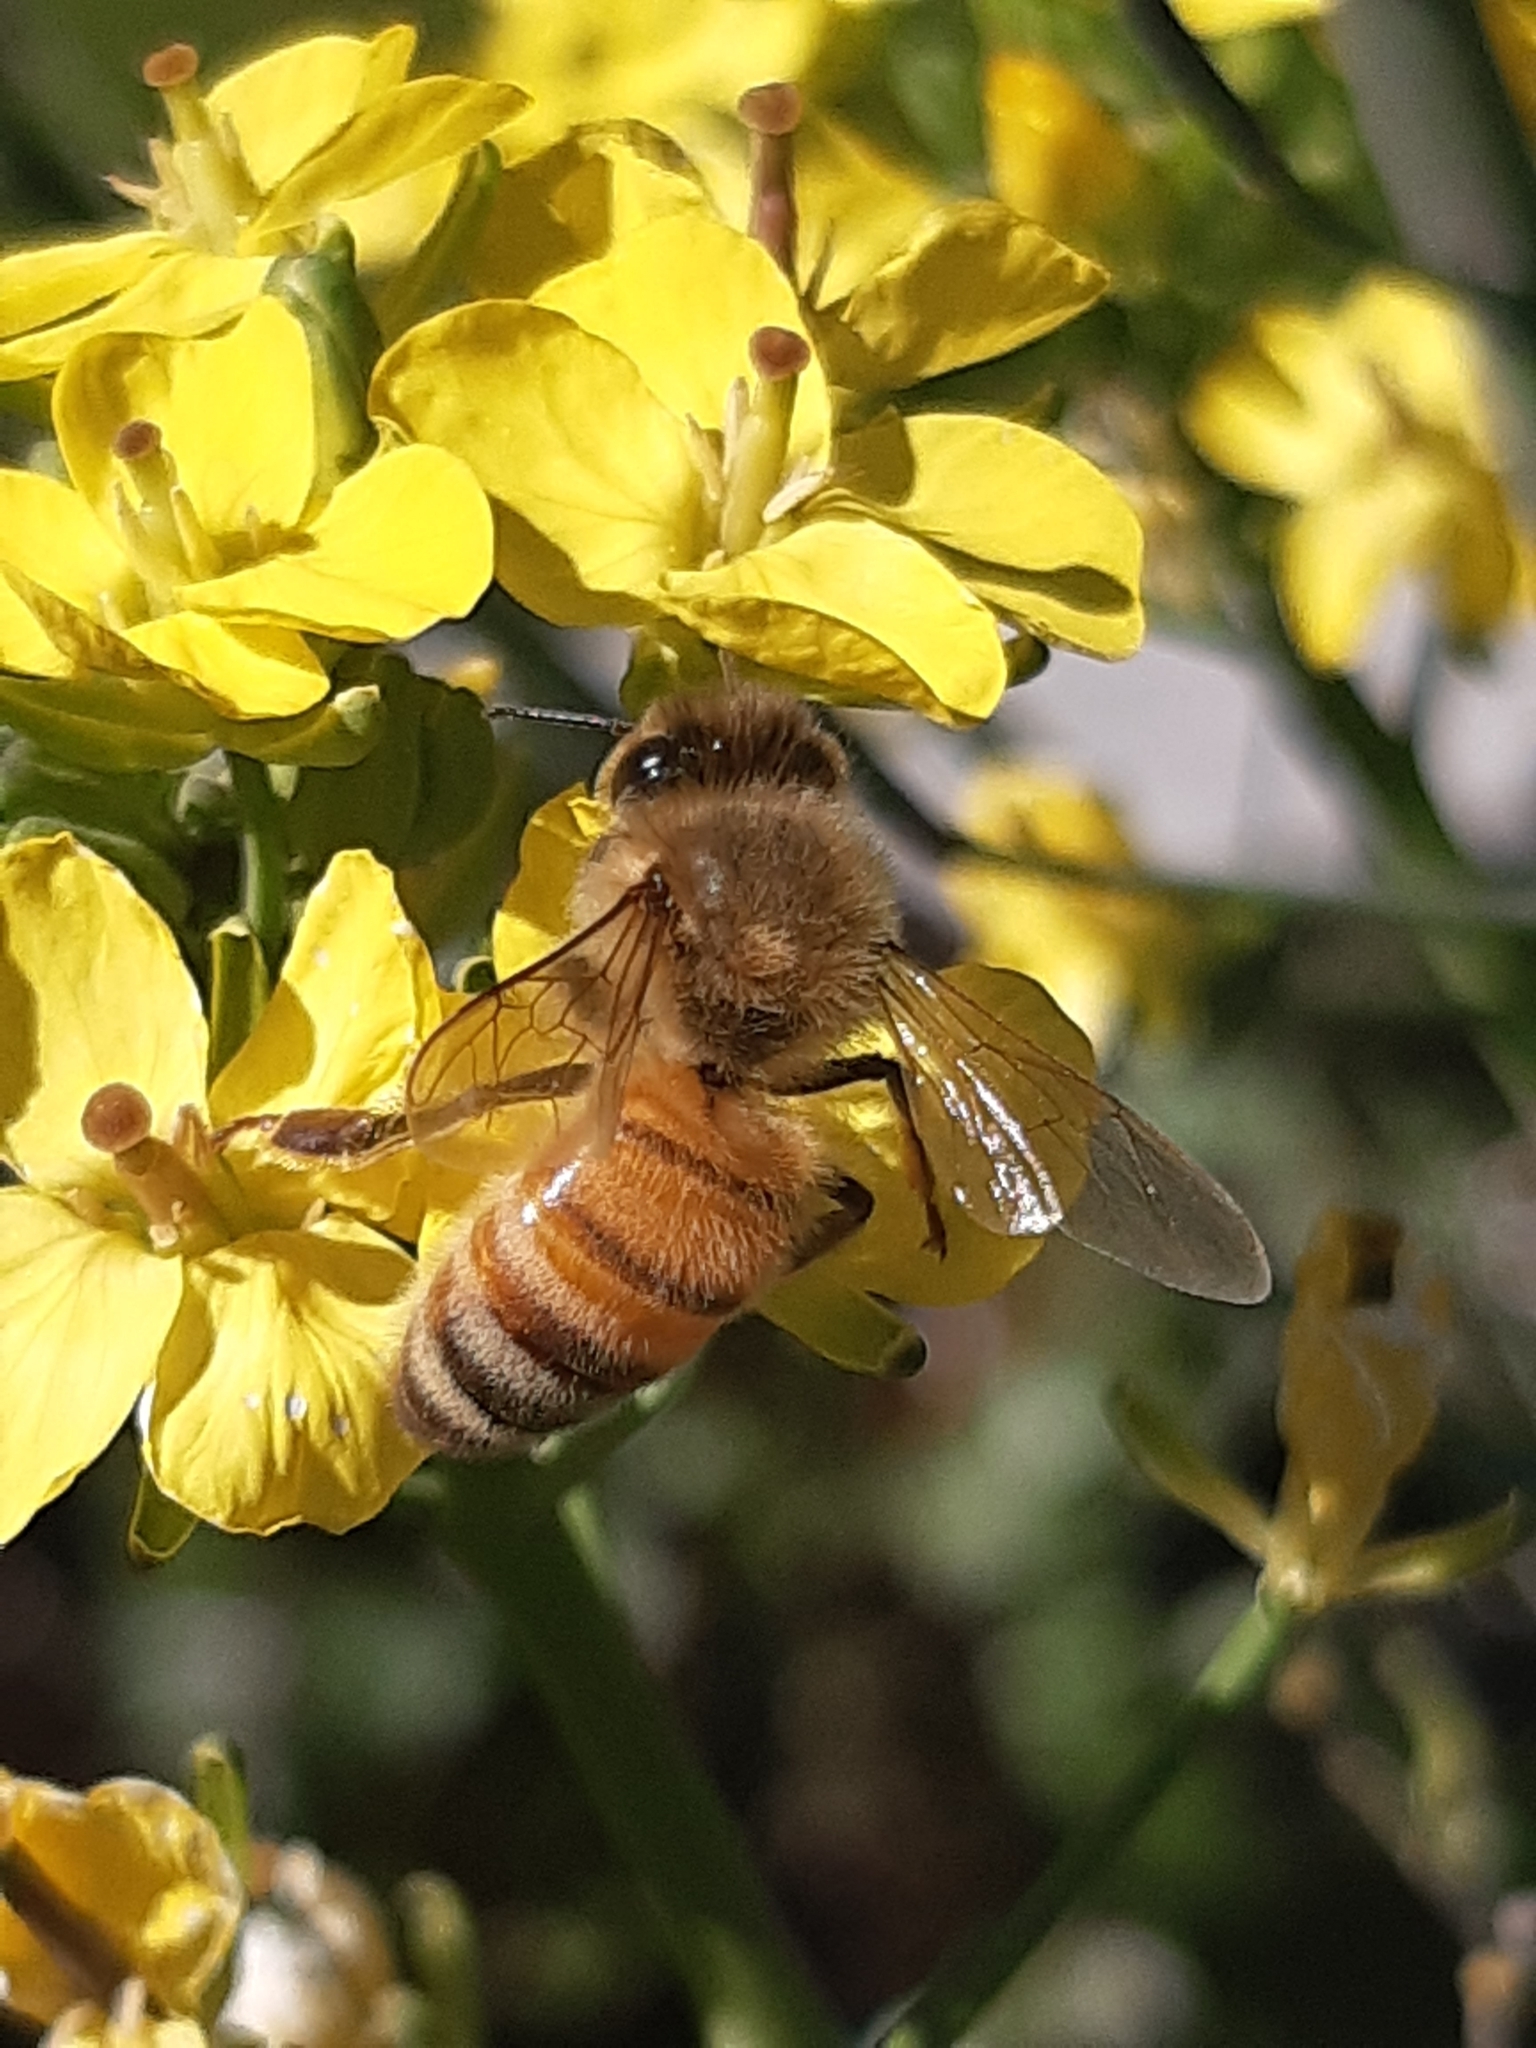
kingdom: Animalia
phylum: Arthropoda
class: Insecta
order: Hymenoptera
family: Apidae
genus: Apis
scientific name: Apis mellifera
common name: Honey bee
